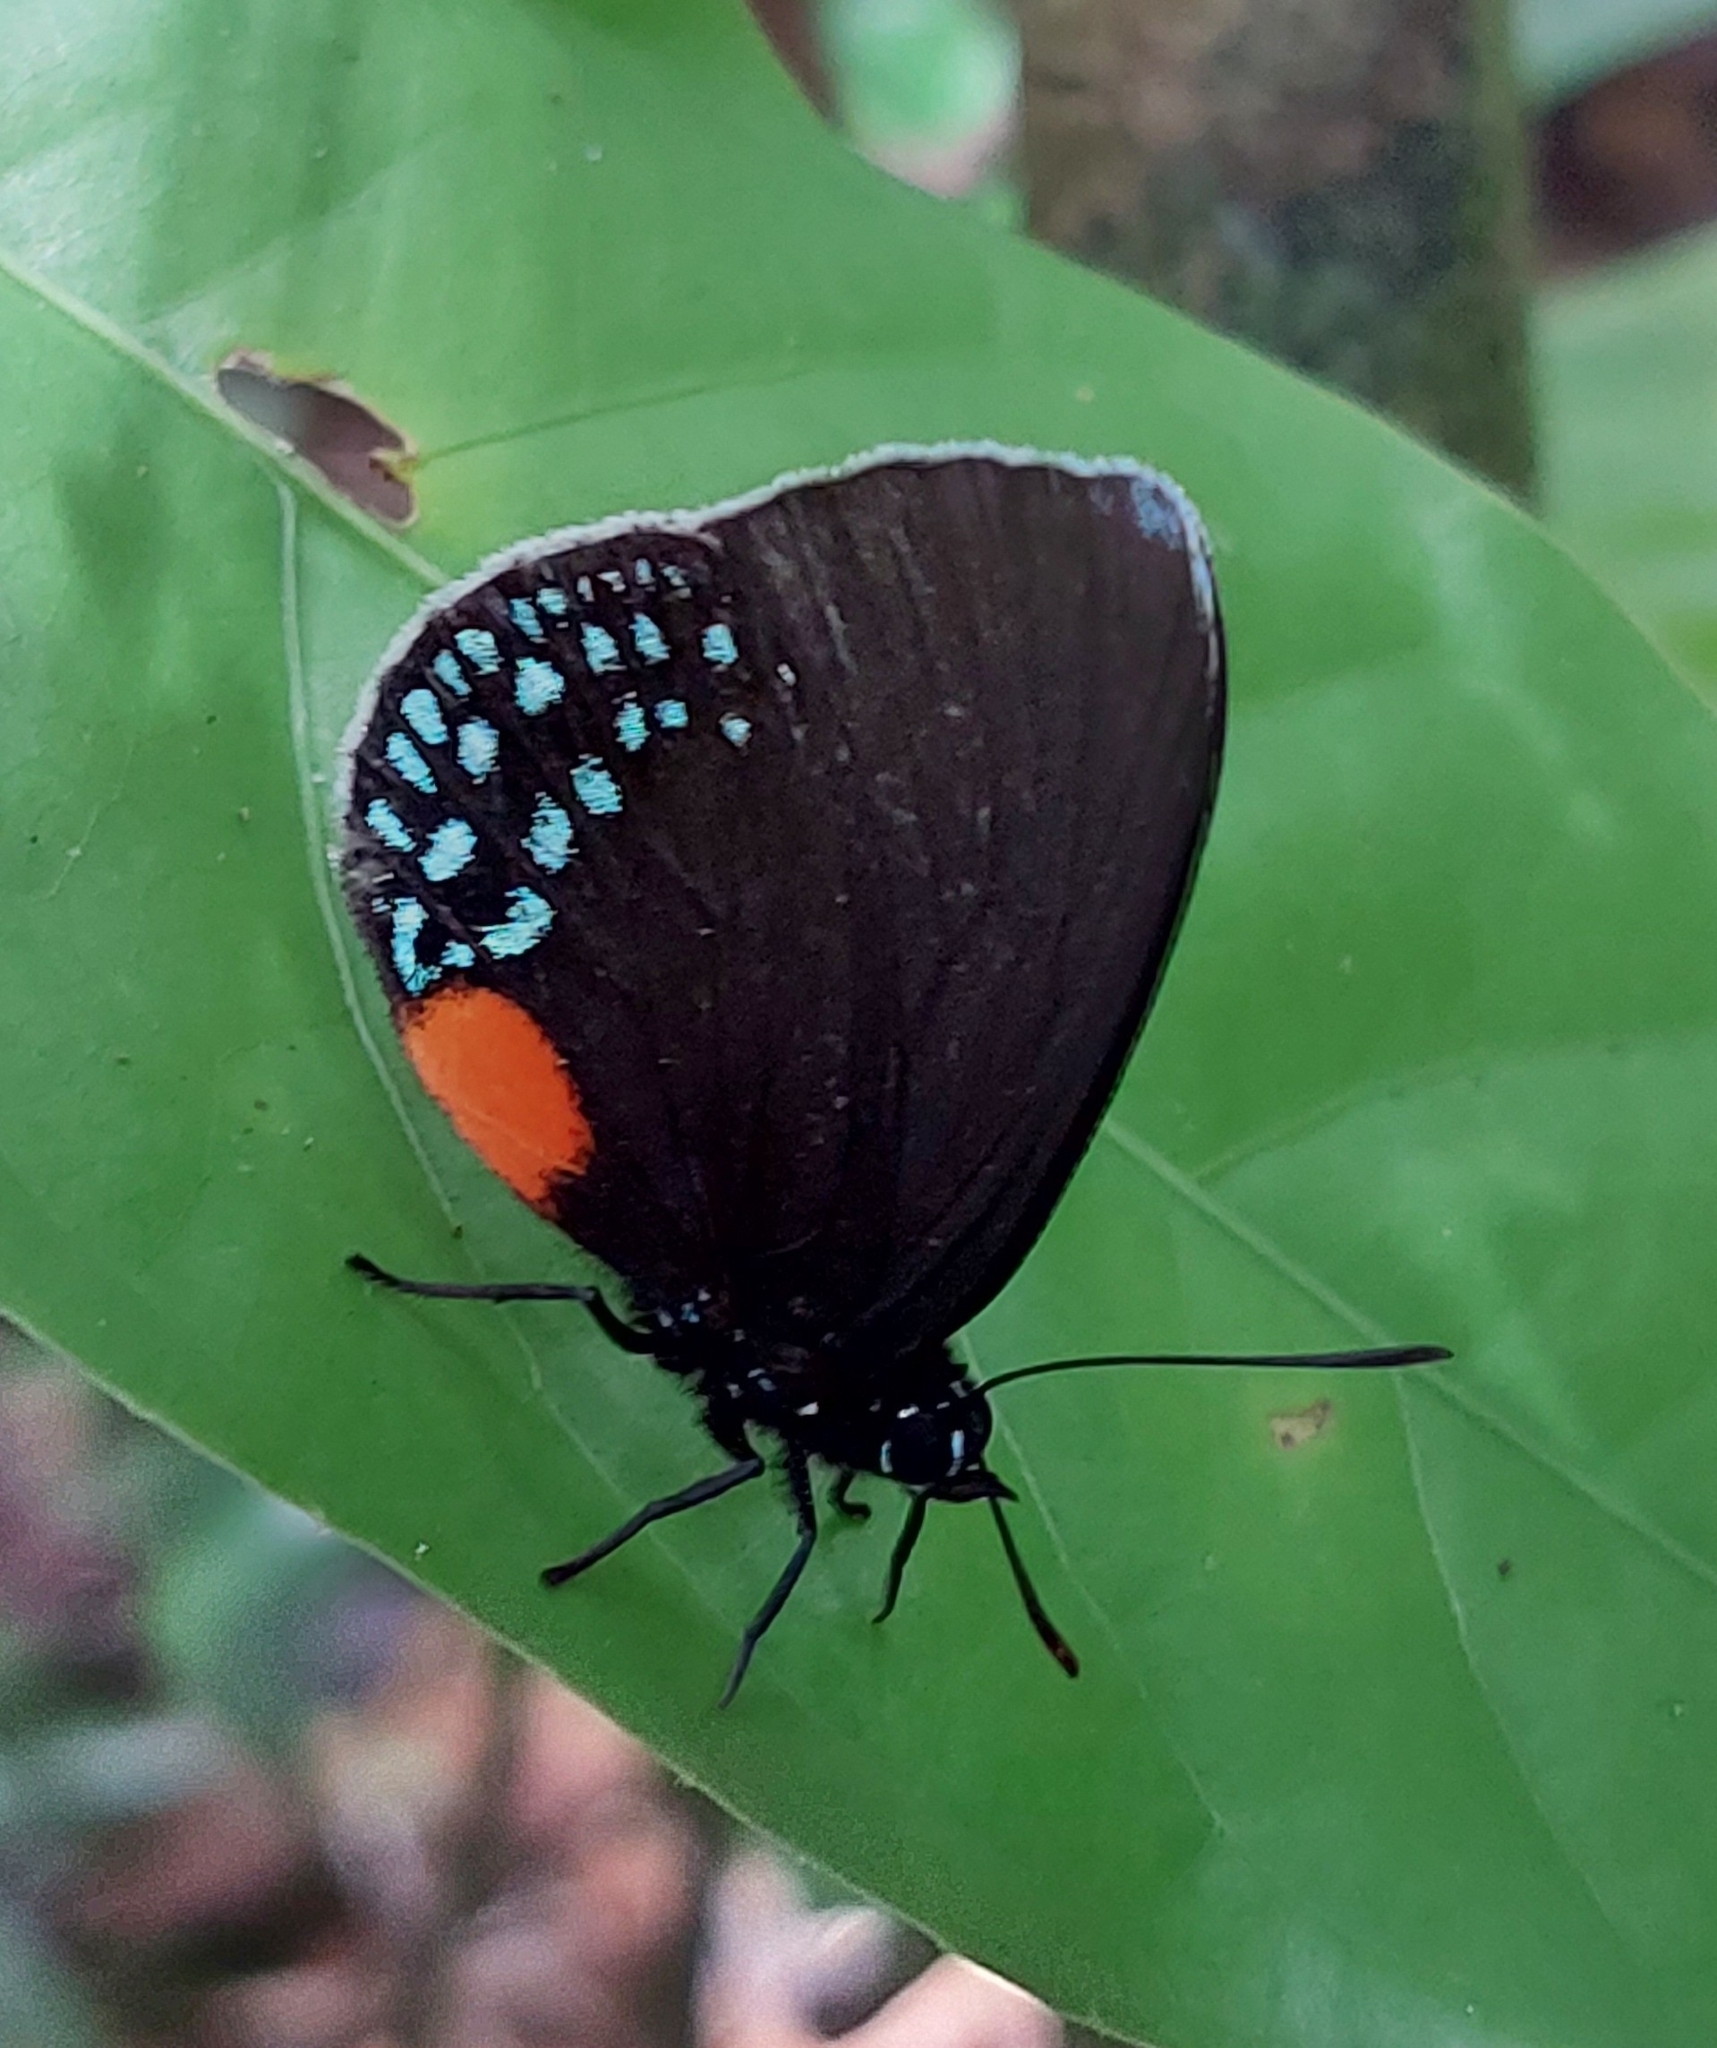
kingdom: Animalia
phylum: Arthropoda
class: Insecta
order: Lepidoptera
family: Lycaenidae
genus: Eumaeus
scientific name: Eumaeus godartii
